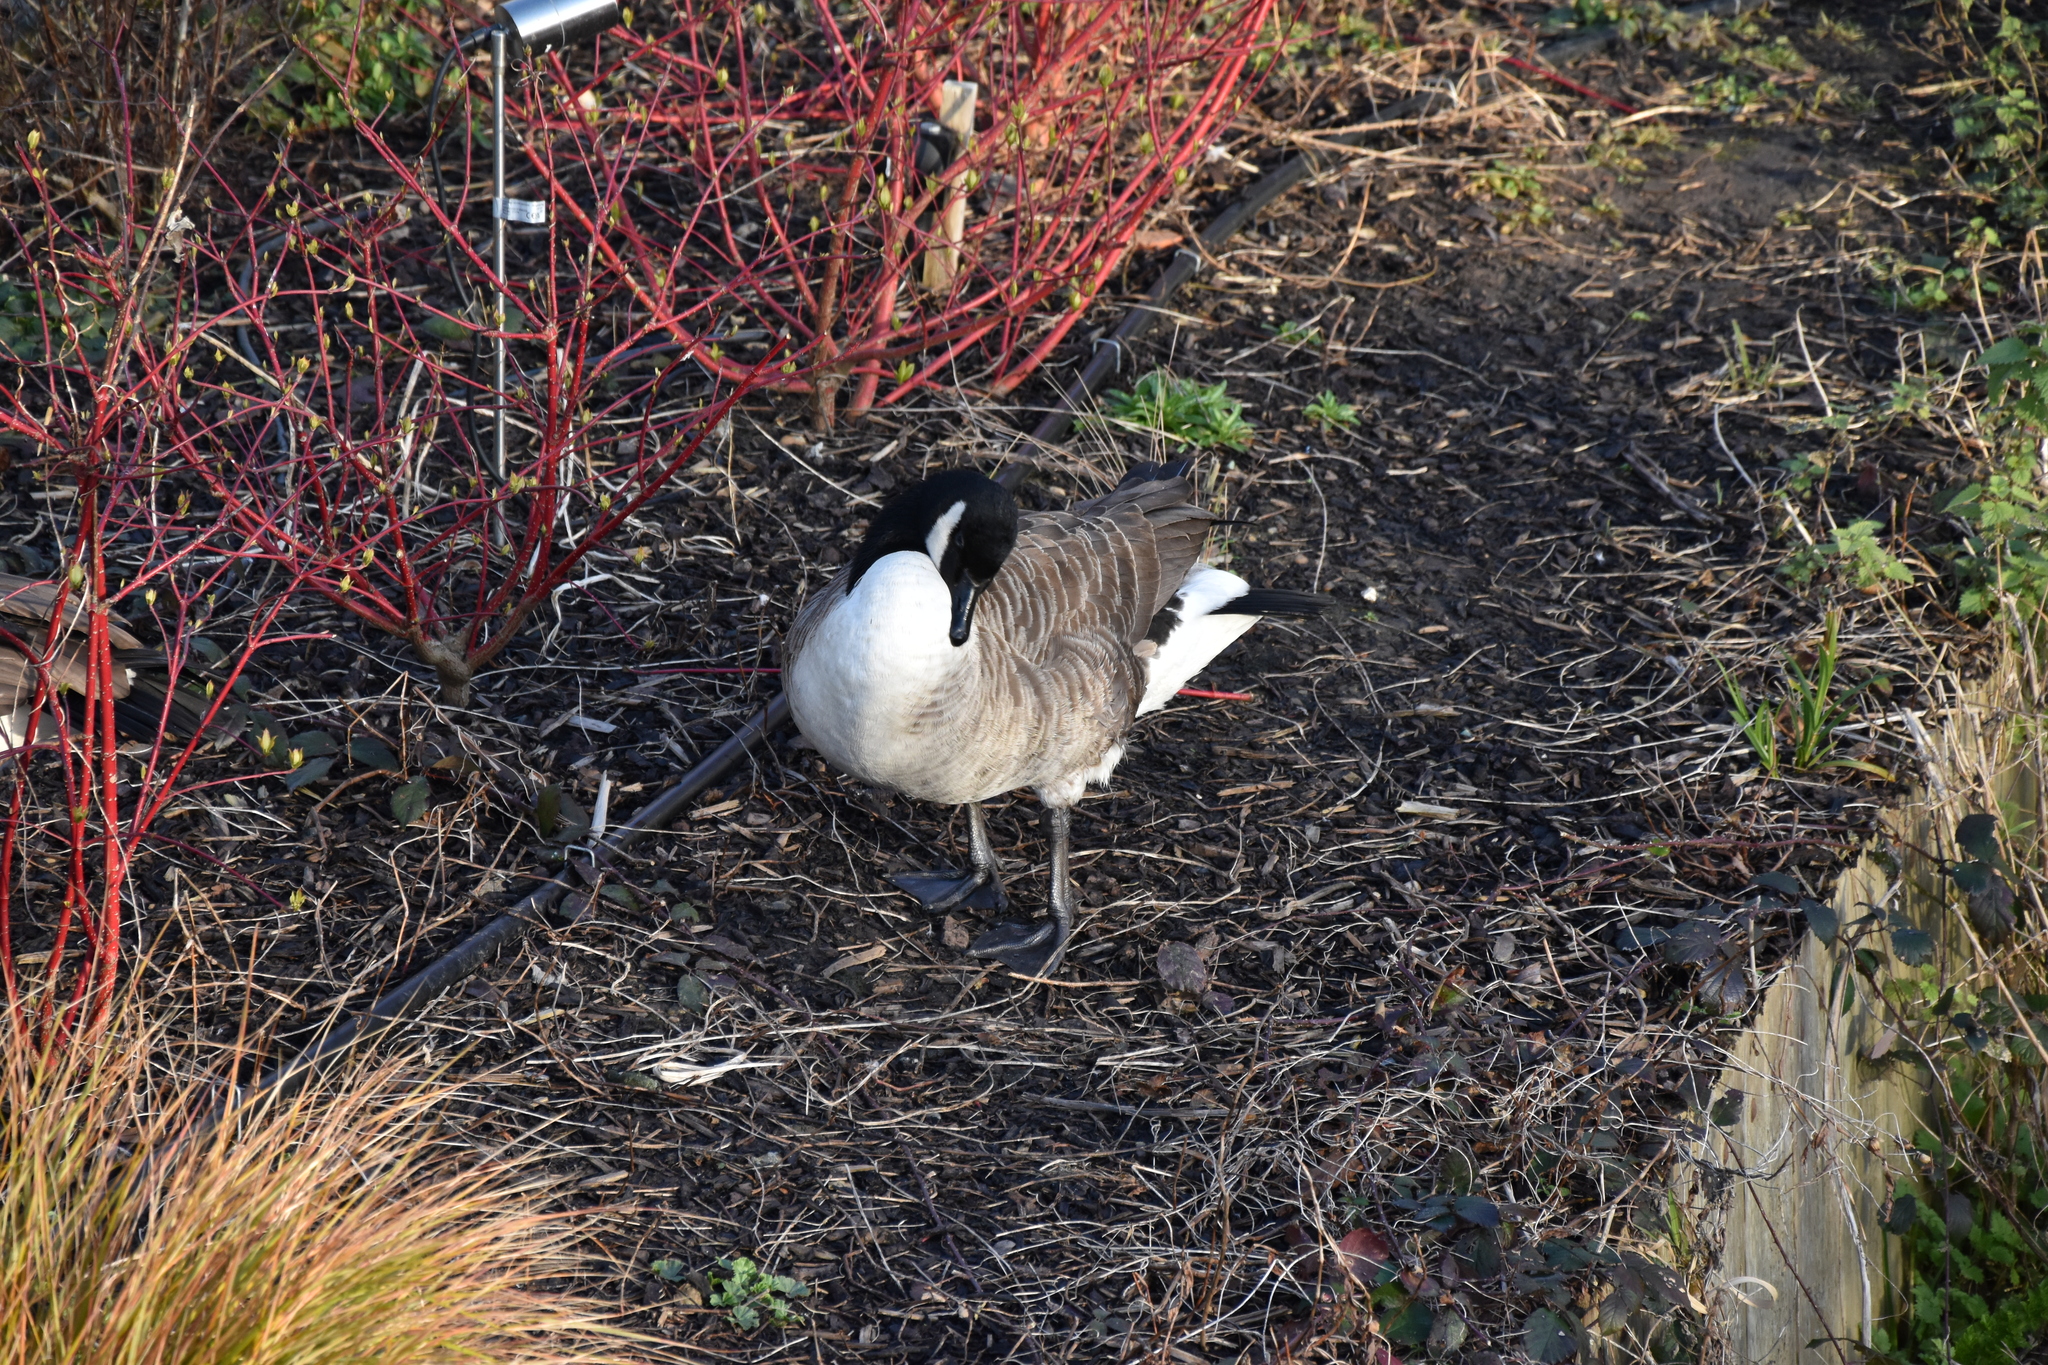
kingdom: Animalia
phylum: Chordata
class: Aves
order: Anseriformes
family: Anatidae
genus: Branta
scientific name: Branta canadensis
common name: Canada goose
